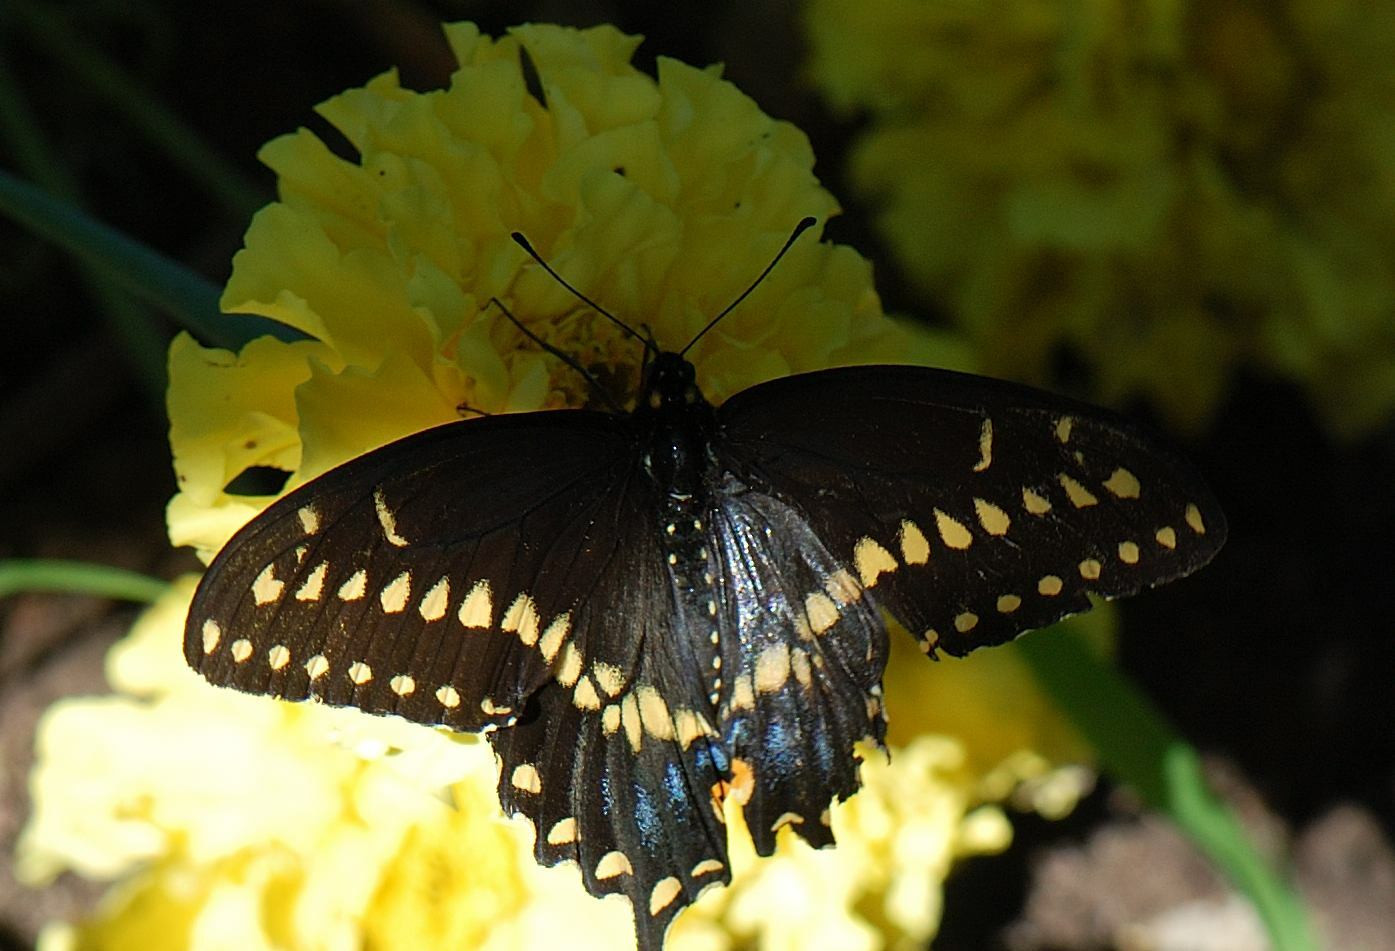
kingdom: Animalia
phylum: Arthropoda
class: Insecta
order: Lepidoptera
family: Papilionidae
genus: Papilio
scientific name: Papilio polyxenes
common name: Black swallowtail
